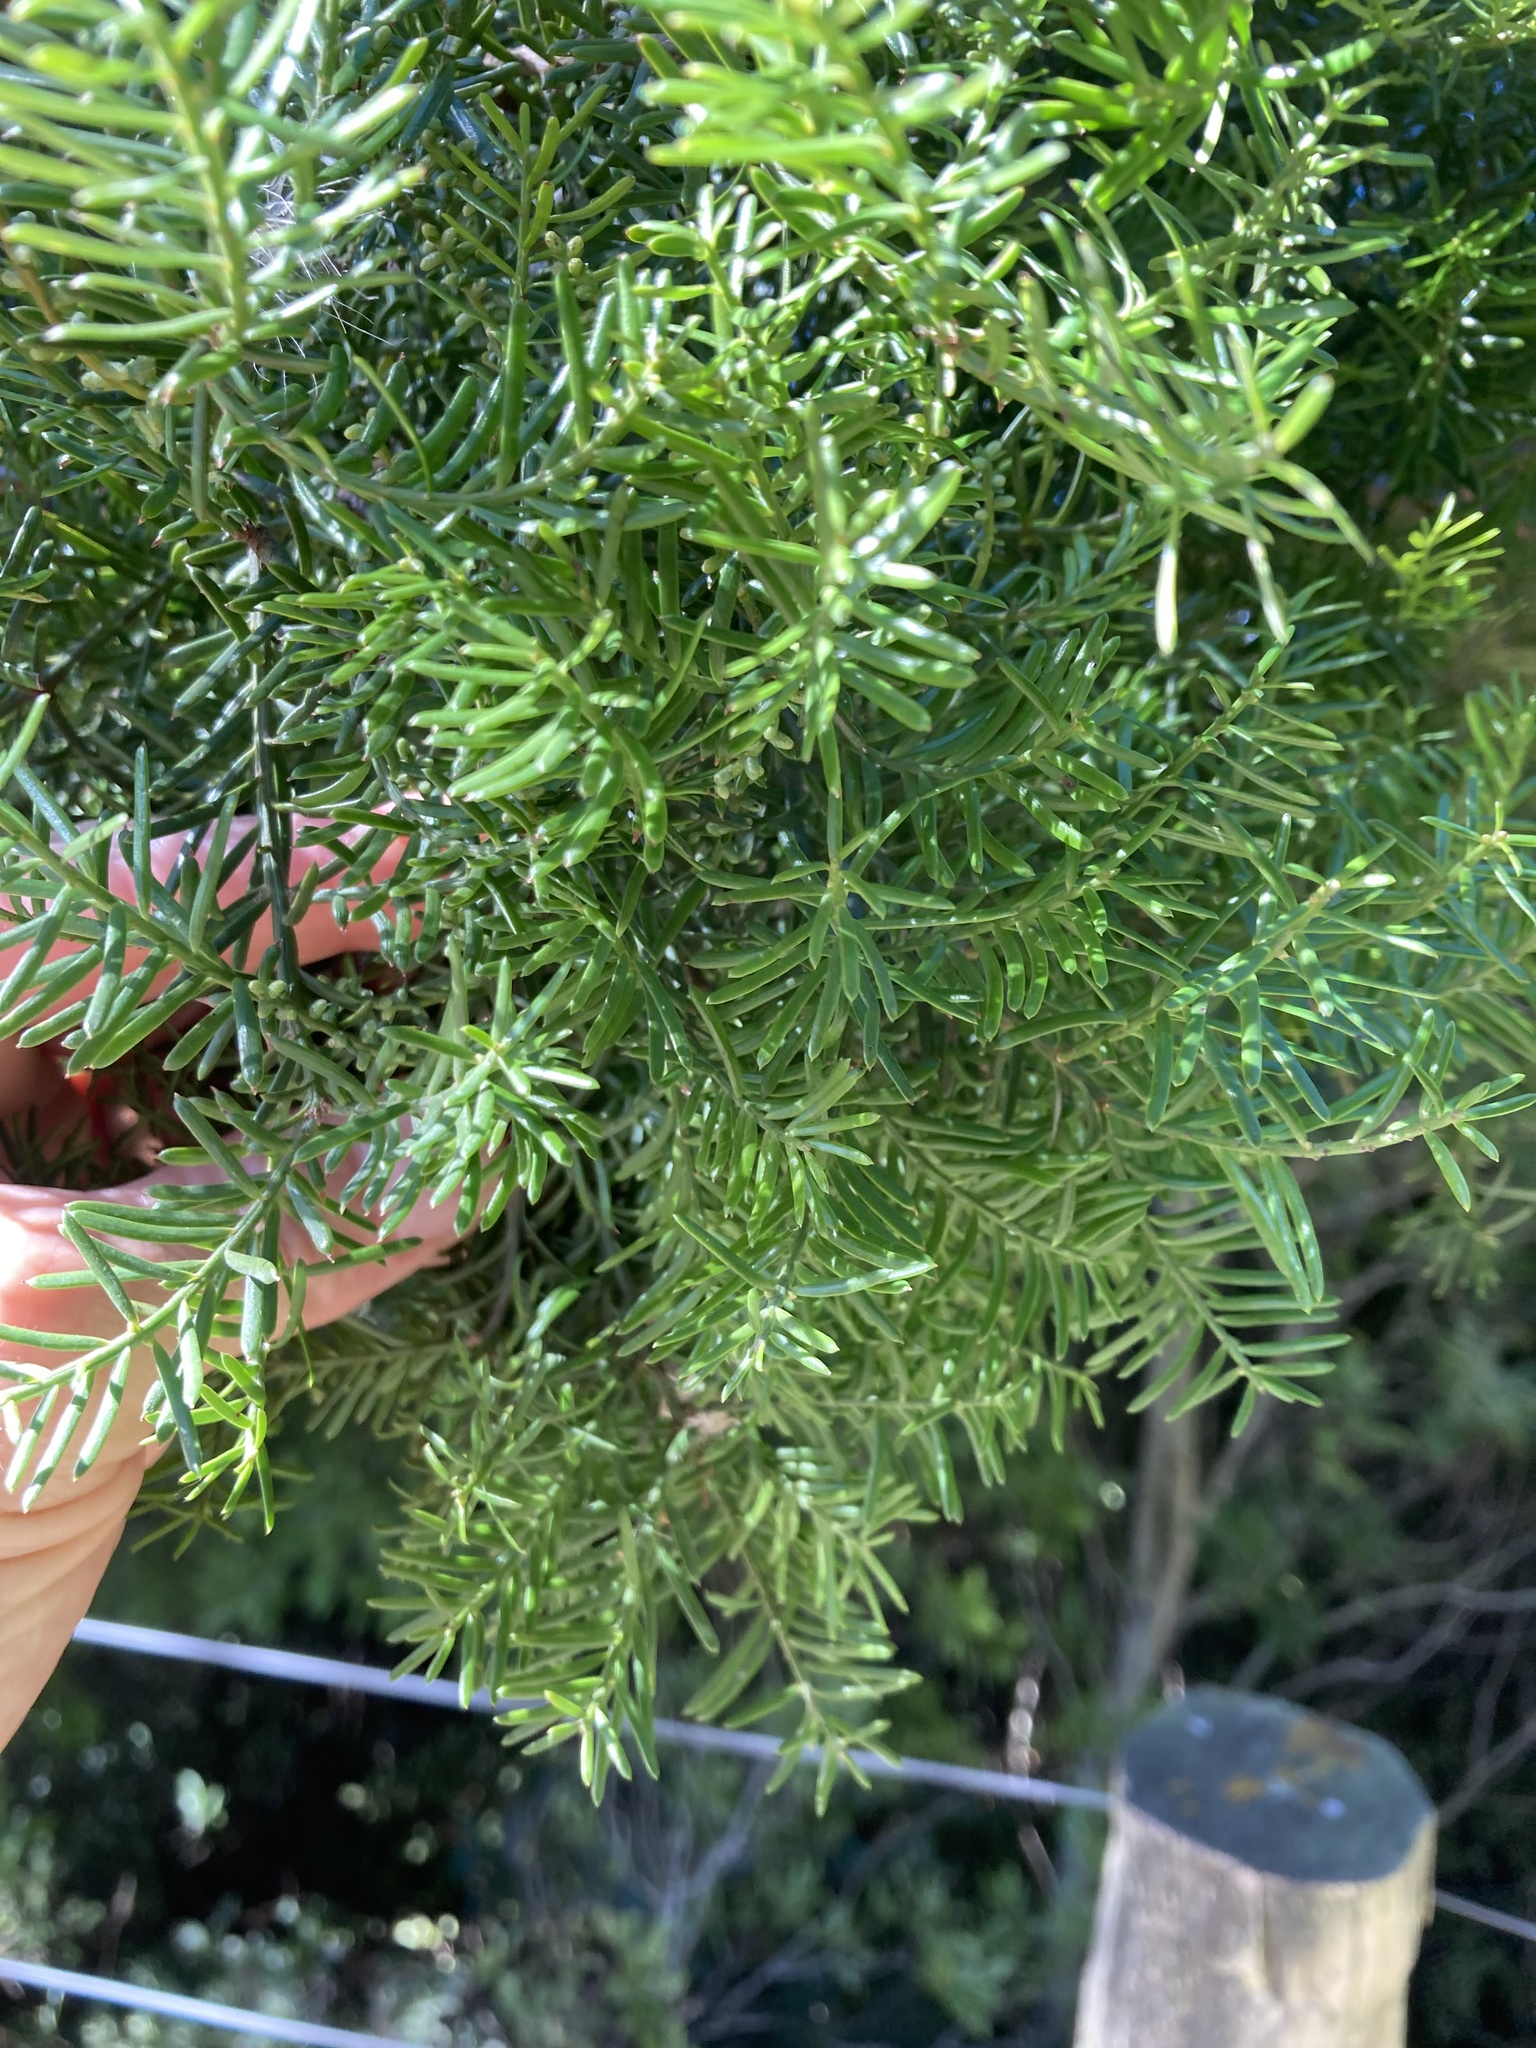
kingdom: Plantae
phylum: Tracheophyta
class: Pinopsida
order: Pinales
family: Podocarpaceae
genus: Prumnopitys
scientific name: Prumnopitys taxifolia
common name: Matai
